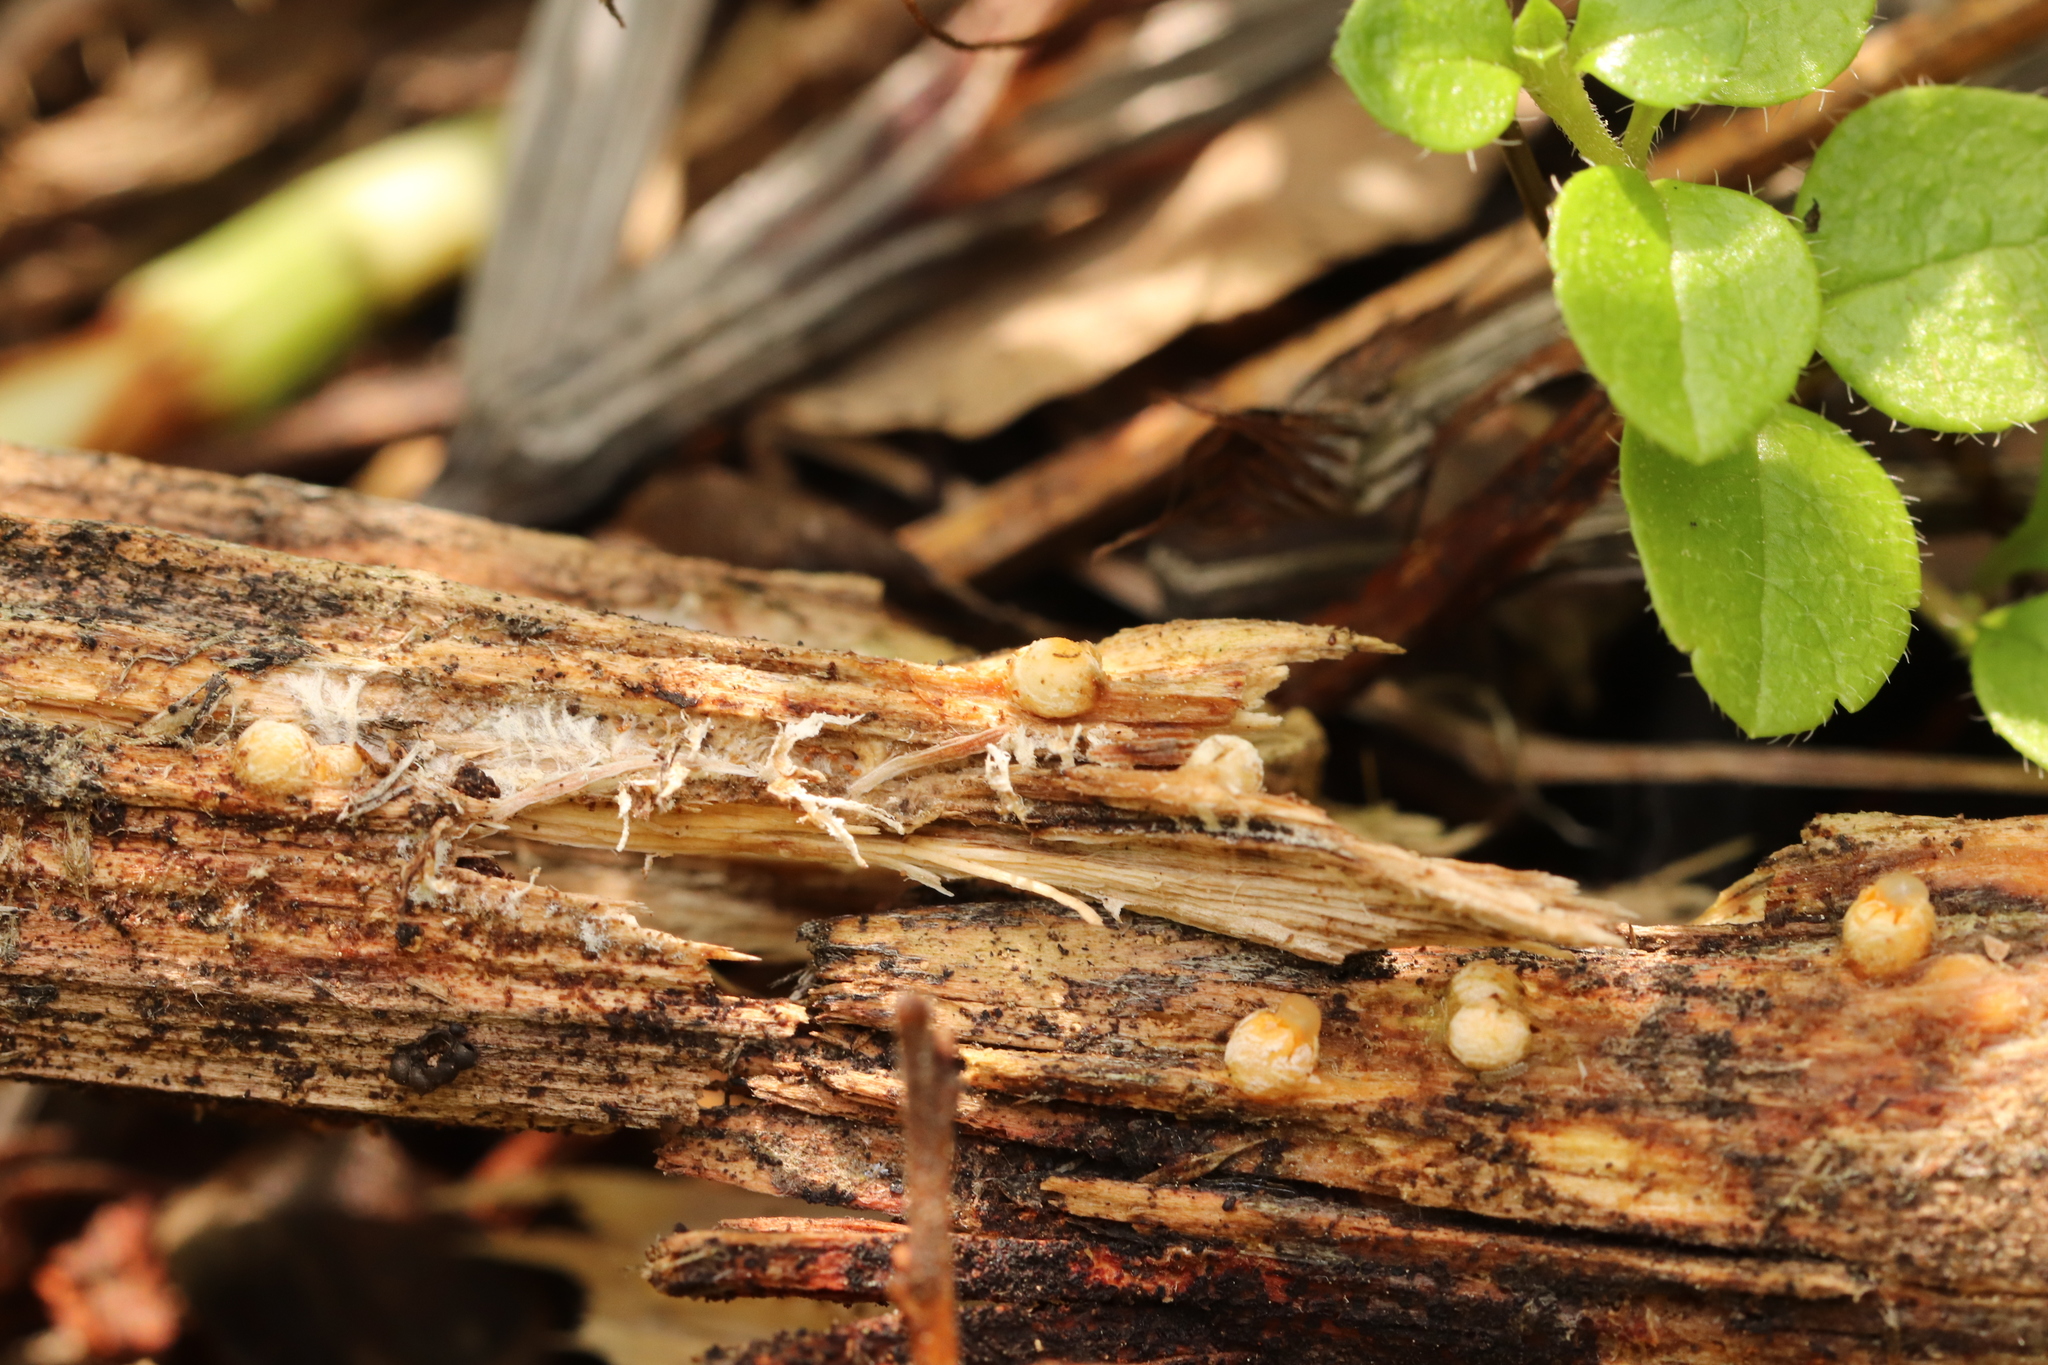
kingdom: Fungi
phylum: Basidiomycota
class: Agaricomycetes
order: Geastrales
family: Geastraceae
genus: Sphaerobolus
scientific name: Sphaerobolus stellatus
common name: Cannon fungus
